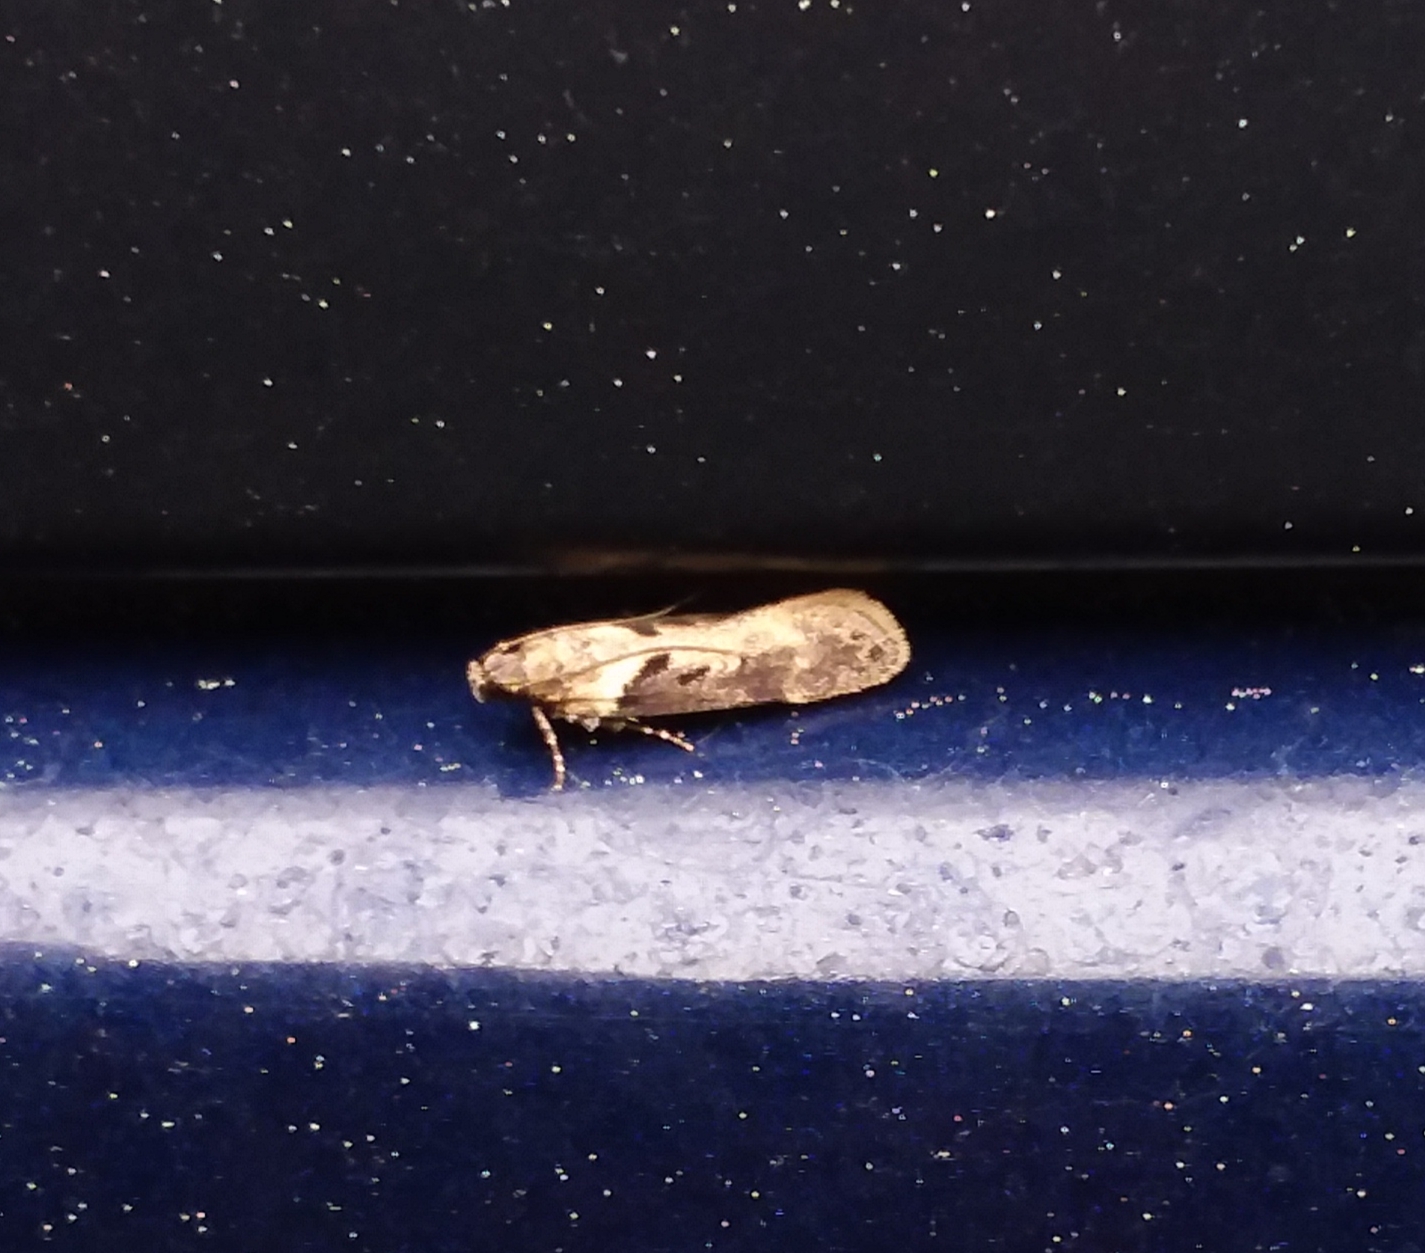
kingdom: Animalia
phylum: Arthropoda
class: Insecta
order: Lepidoptera
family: Gelechiidae
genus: Chionodes
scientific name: Chionodes mediofuscella
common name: Black-smudged chionodes moth
